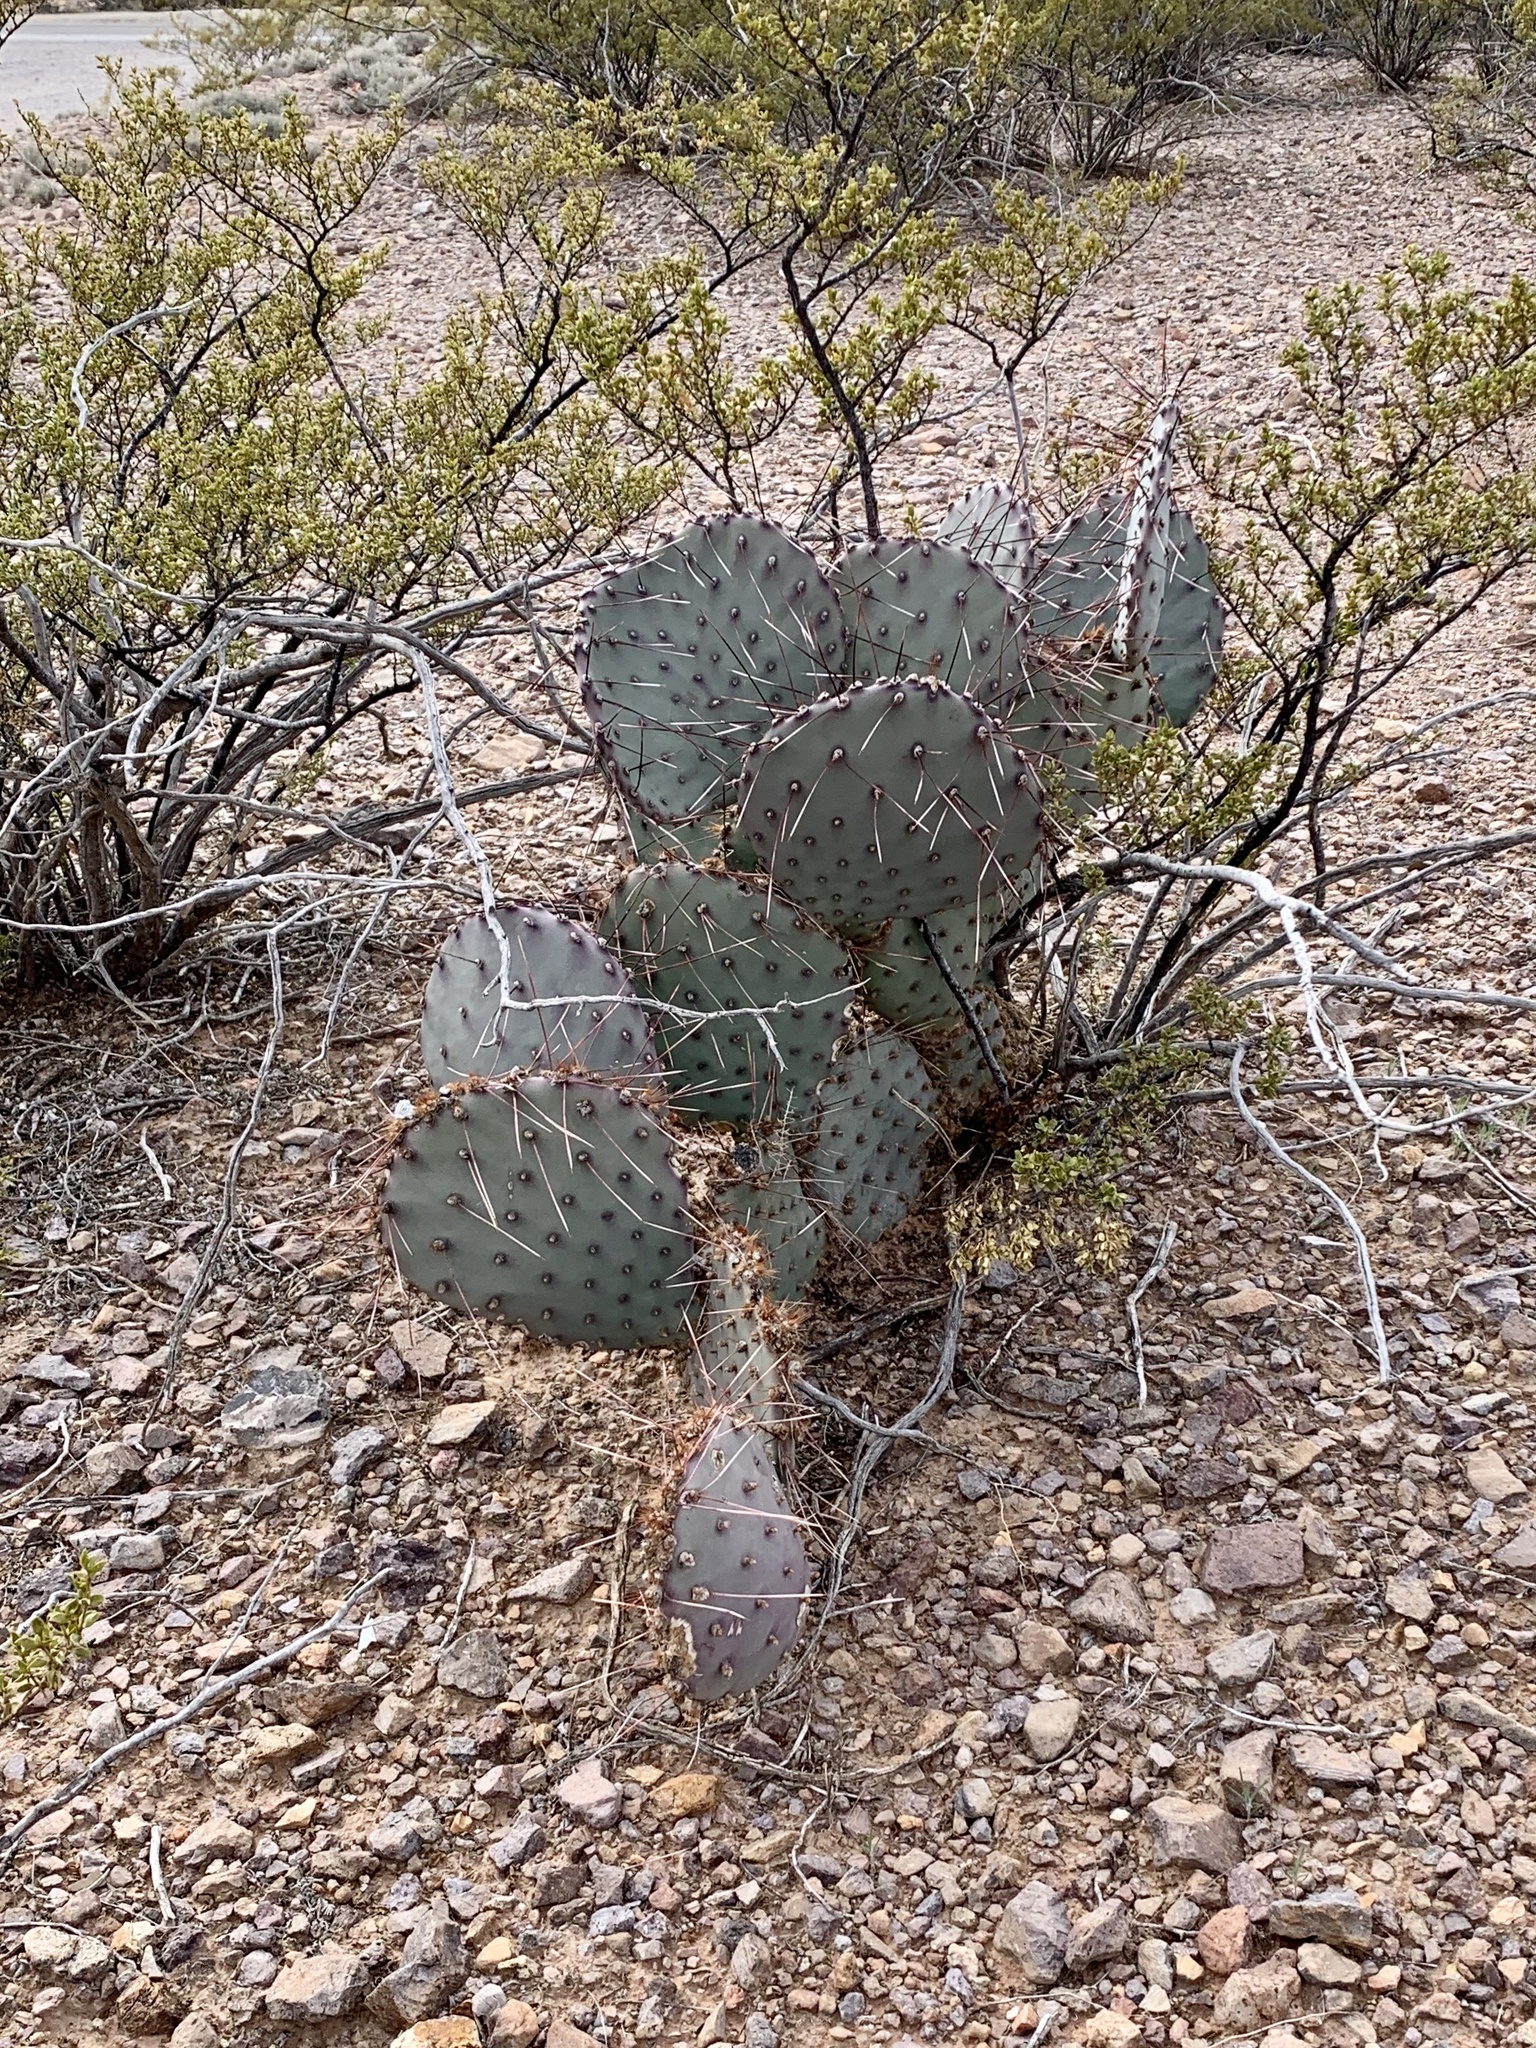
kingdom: Plantae
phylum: Tracheophyta
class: Magnoliopsida
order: Caryophyllales
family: Cactaceae
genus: Opuntia
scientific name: Opuntia macrocentra
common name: Purple prickly-pear
